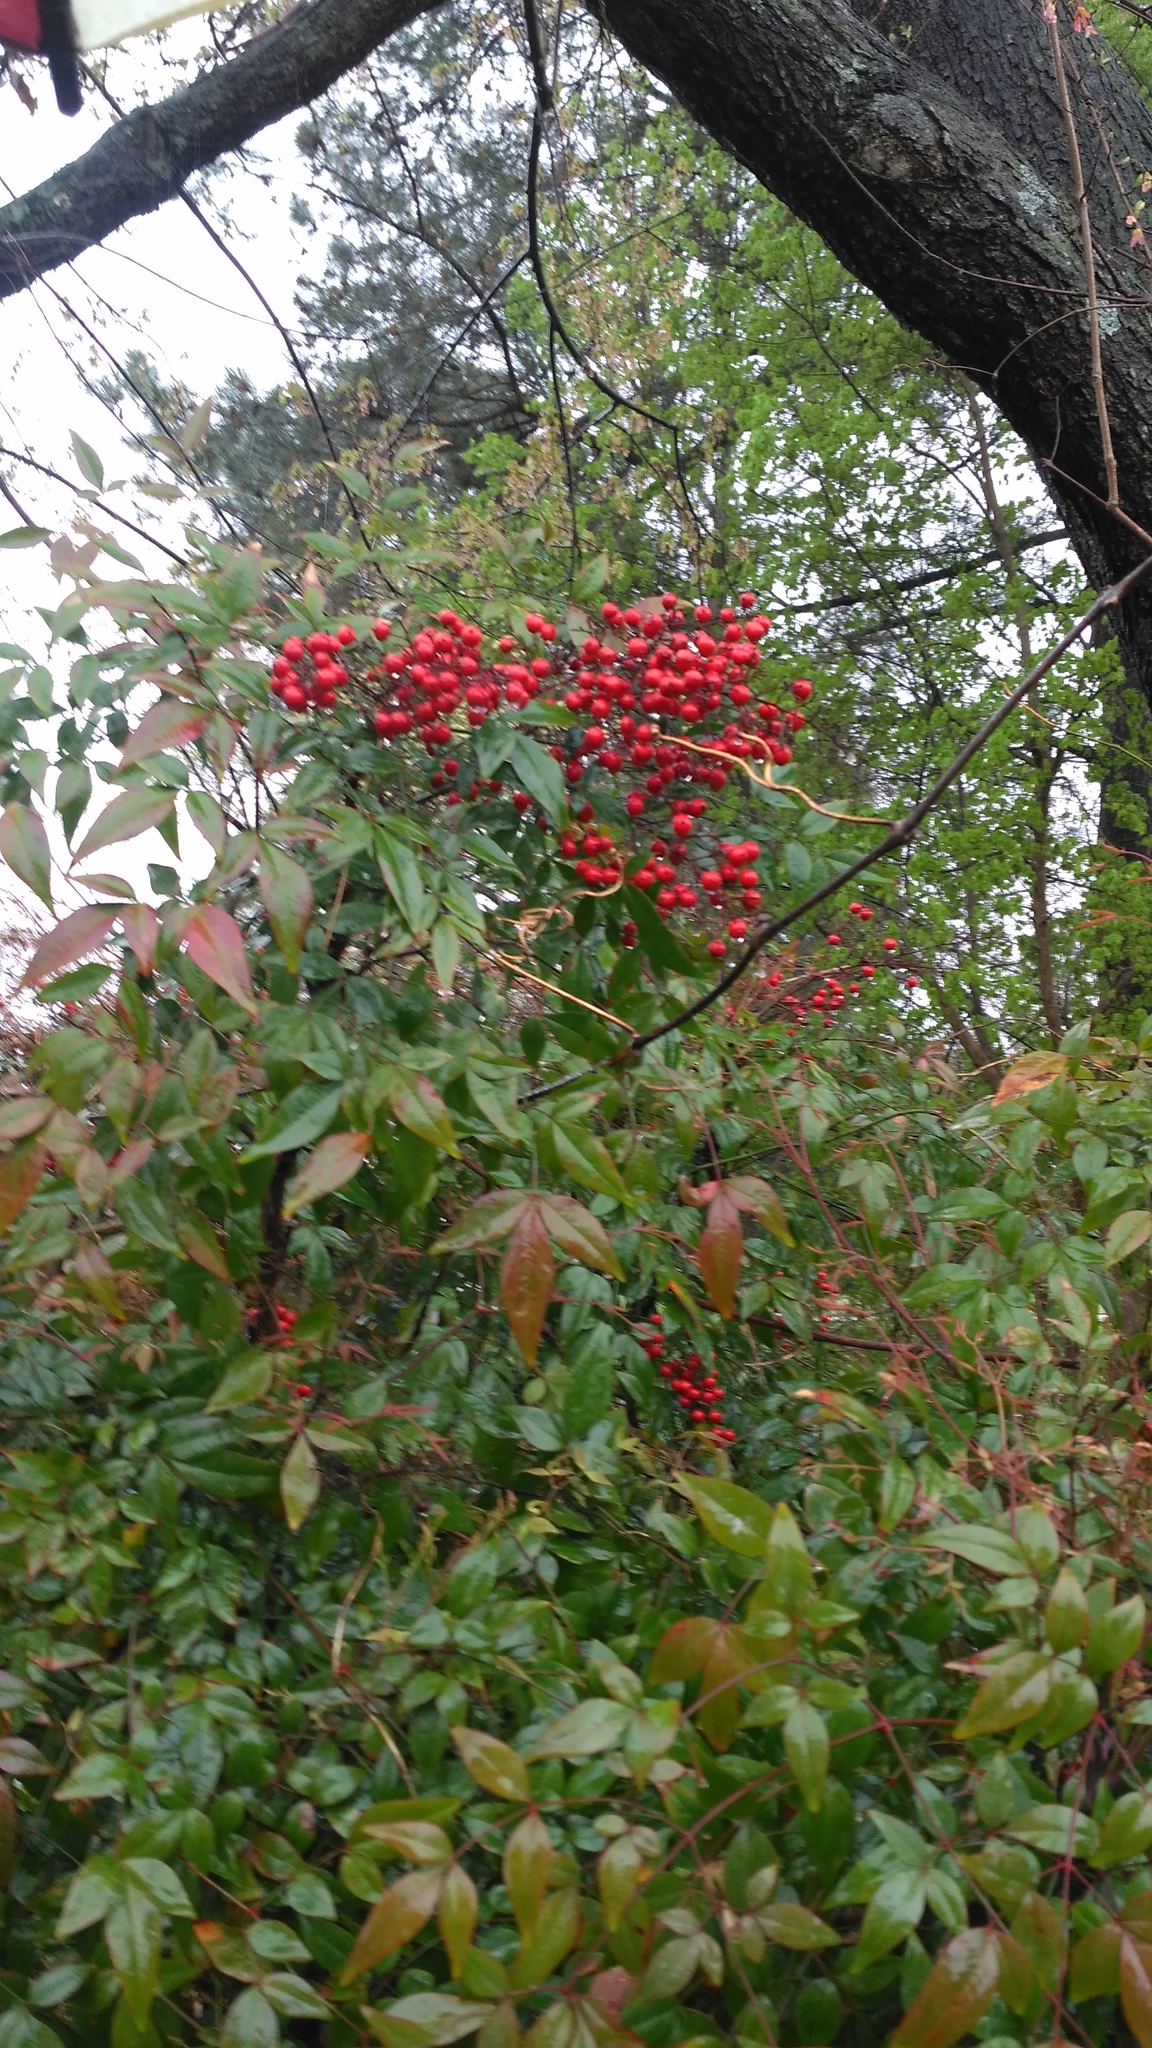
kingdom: Plantae
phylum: Tracheophyta
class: Magnoliopsida
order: Ranunculales
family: Berberidaceae
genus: Nandina
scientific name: Nandina domestica
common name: Sacred bamboo
